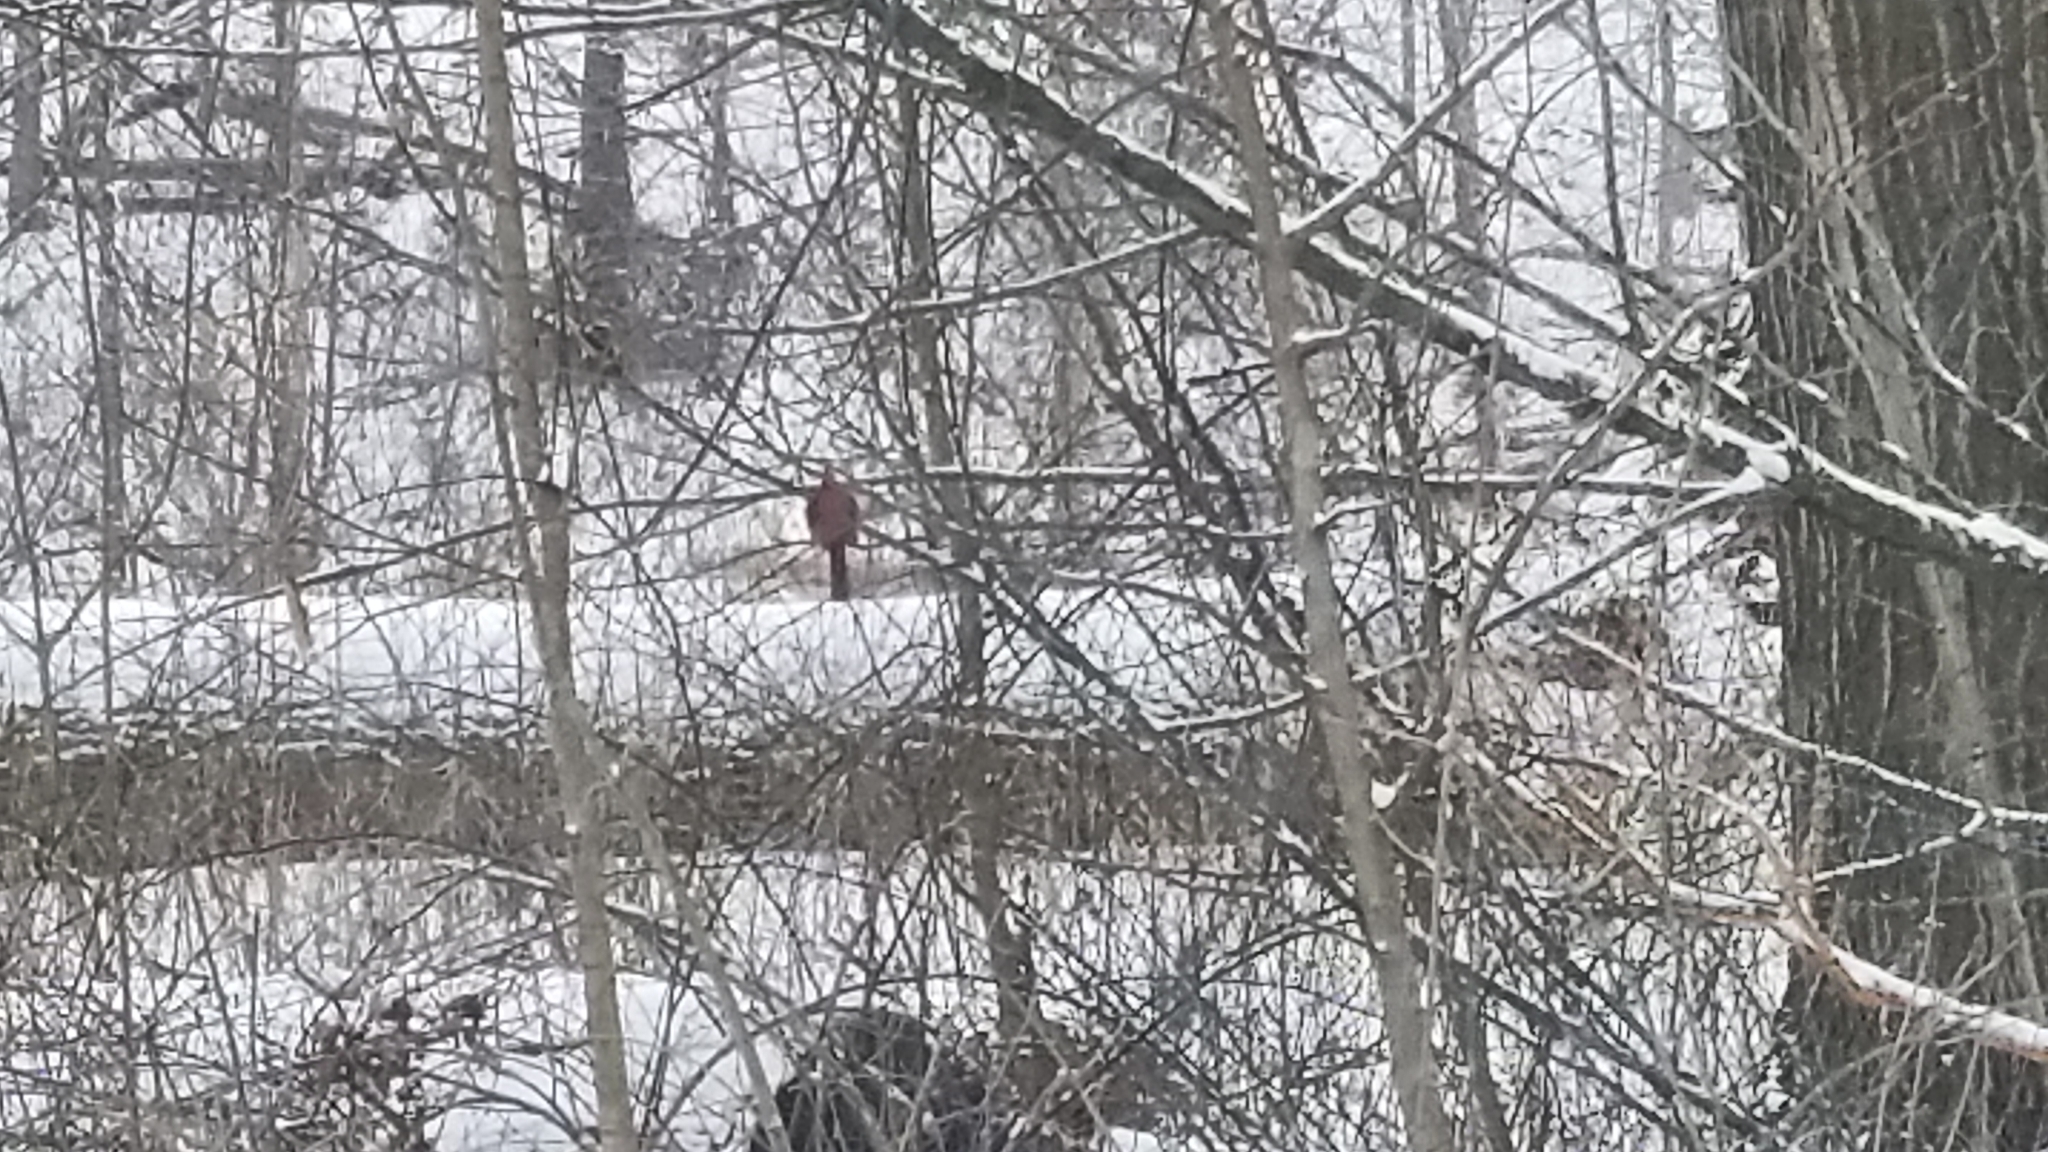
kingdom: Animalia
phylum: Chordata
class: Aves
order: Passeriformes
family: Cardinalidae
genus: Cardinalis
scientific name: Cardinalis cardinalis
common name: Northern cardinal
